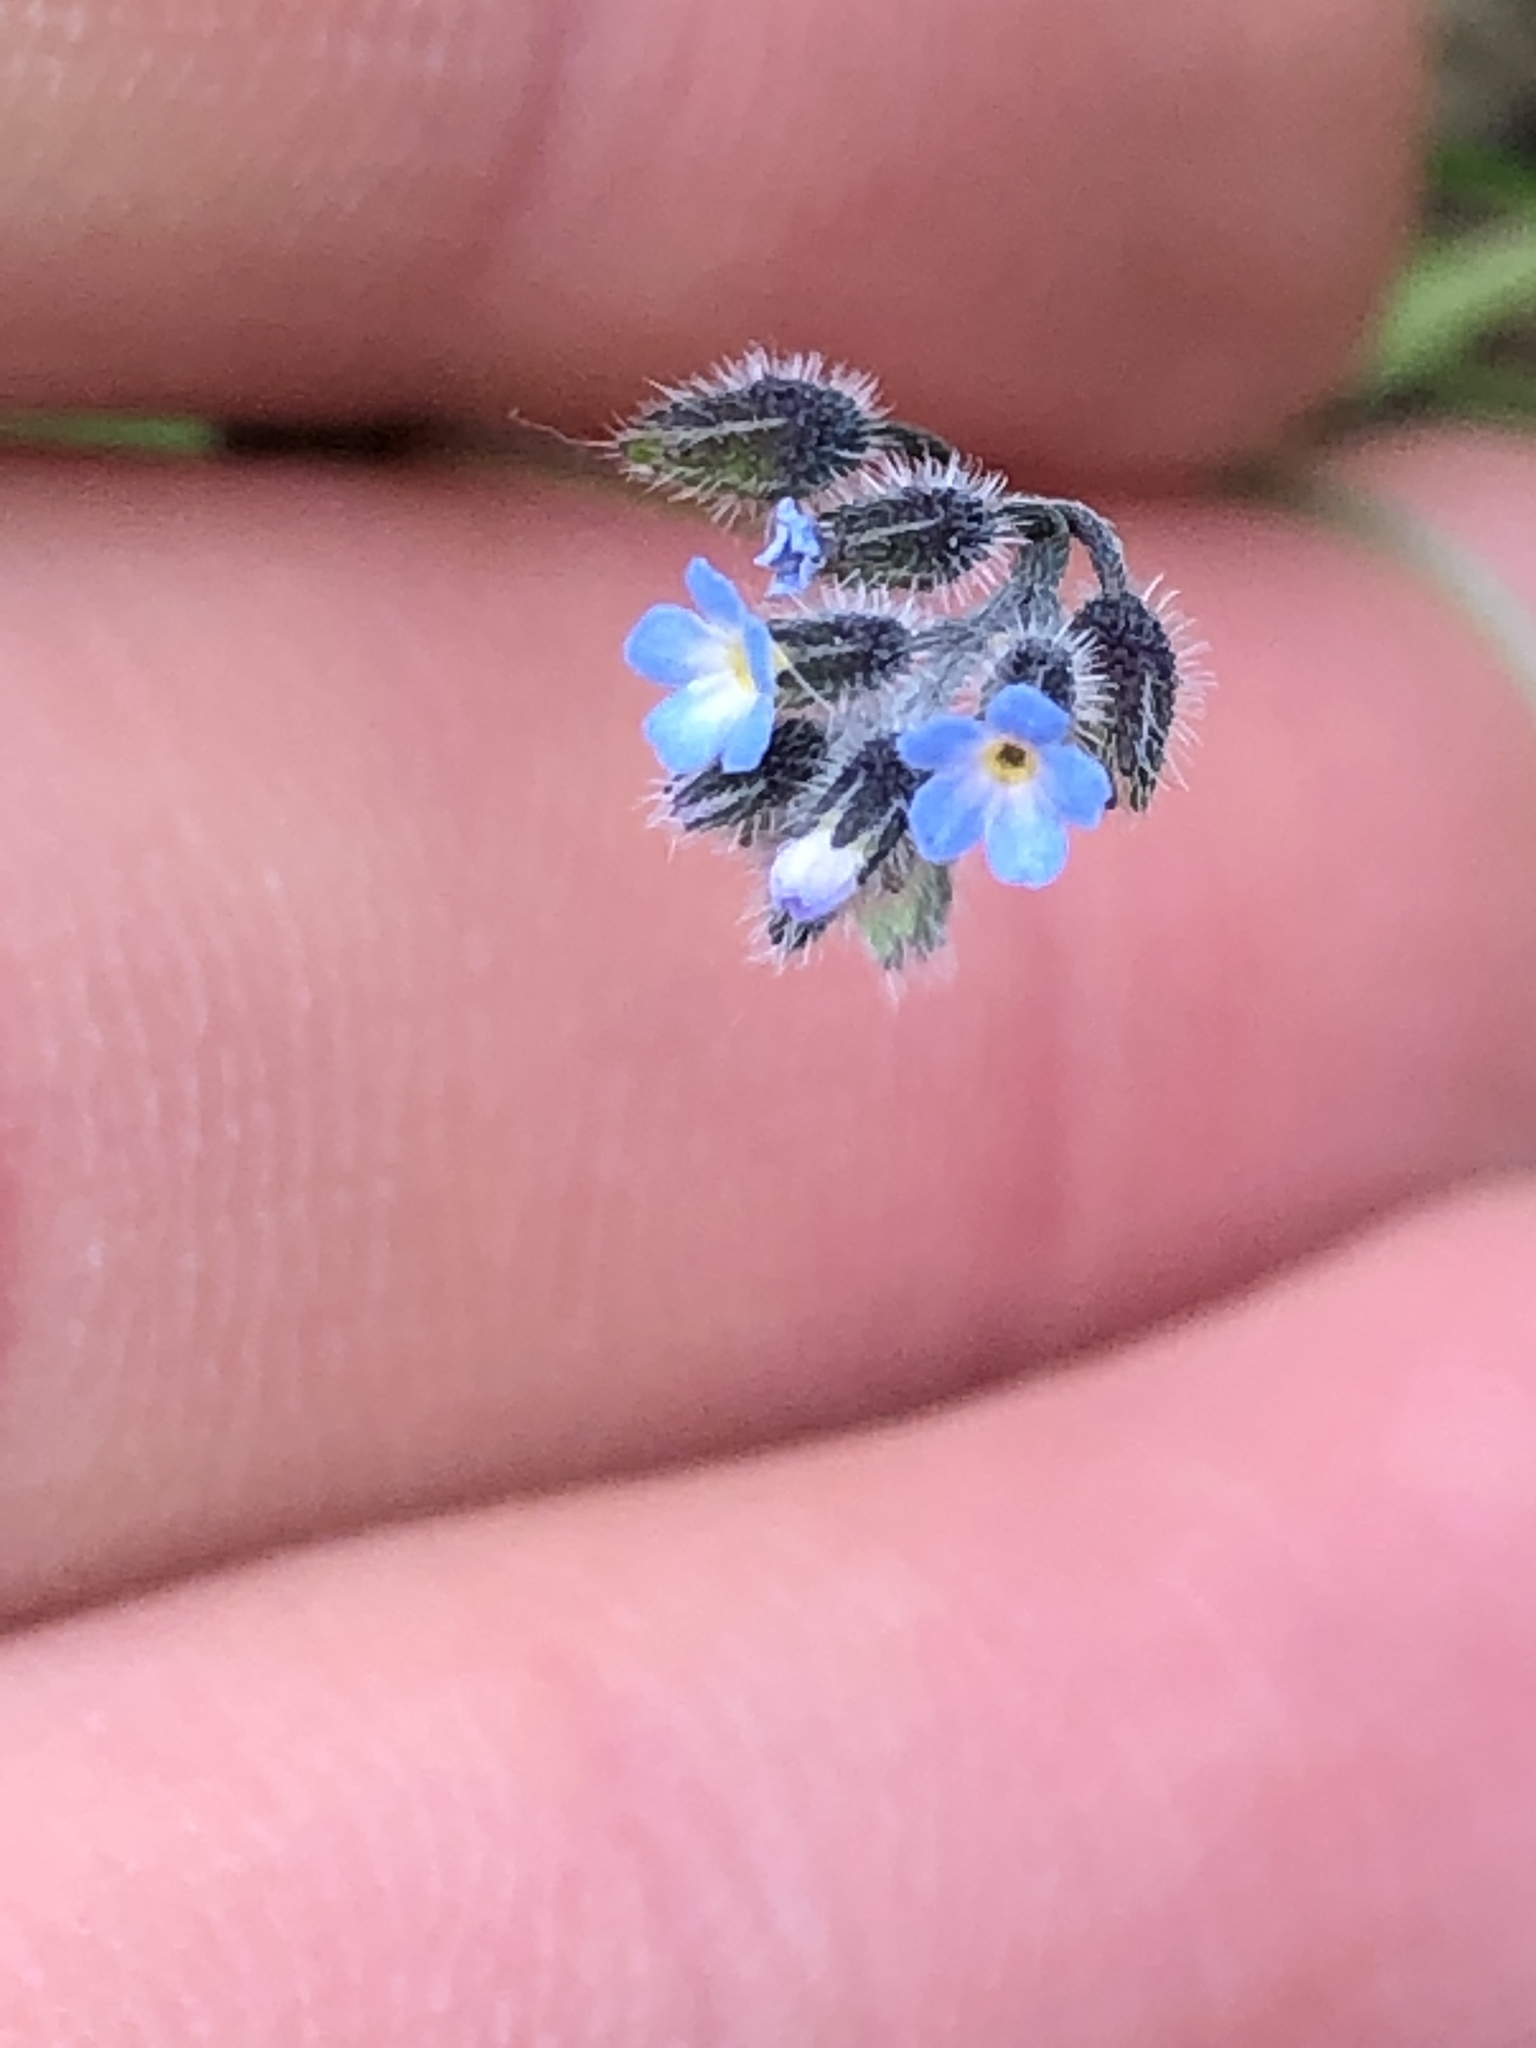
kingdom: Plantae
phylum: Tracheophyta
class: Magnoliopsida
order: Boraginales
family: Boraginaceae
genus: Myosotis
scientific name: Myosotis arvensis
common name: Field forget-me-not
